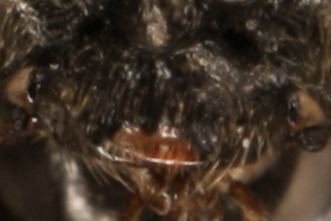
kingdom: Animalia
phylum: Arthropoda
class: Insecta
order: Hymenoptera
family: Tenthredinidae
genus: Empria
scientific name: Empria liturata
